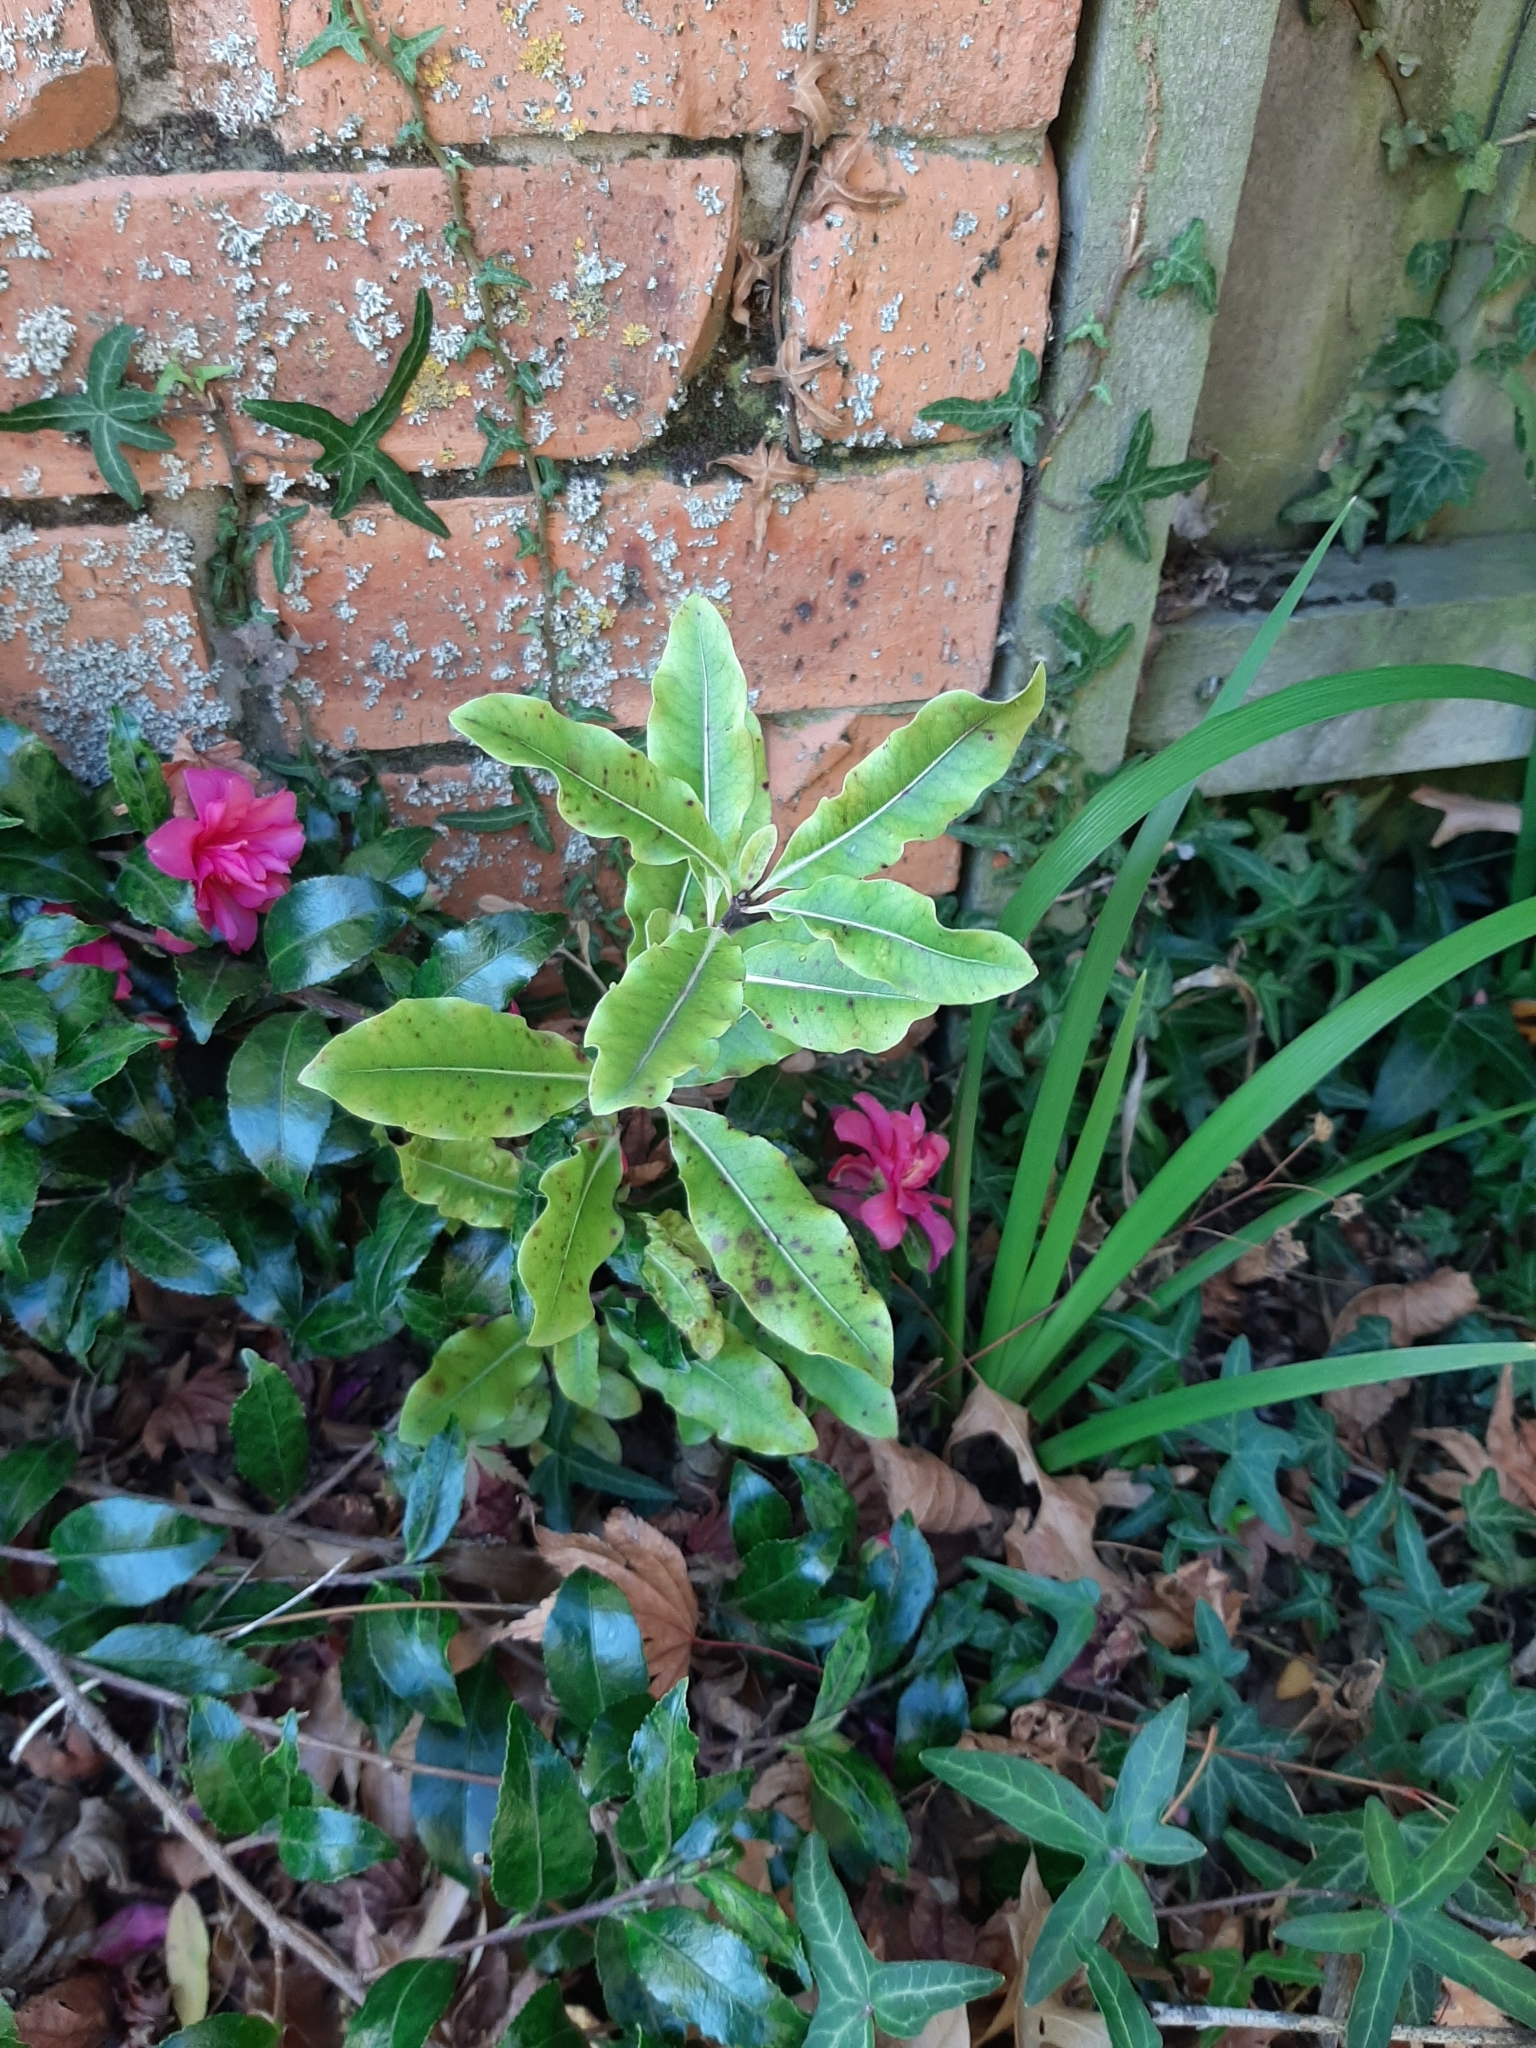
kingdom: Plantae
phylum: Tracheophyta
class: Magnoliopsida
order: Apiales
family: Pittosporaceae
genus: Pittosporum
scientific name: Pittosporum eugenioides
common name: Lemonwood
